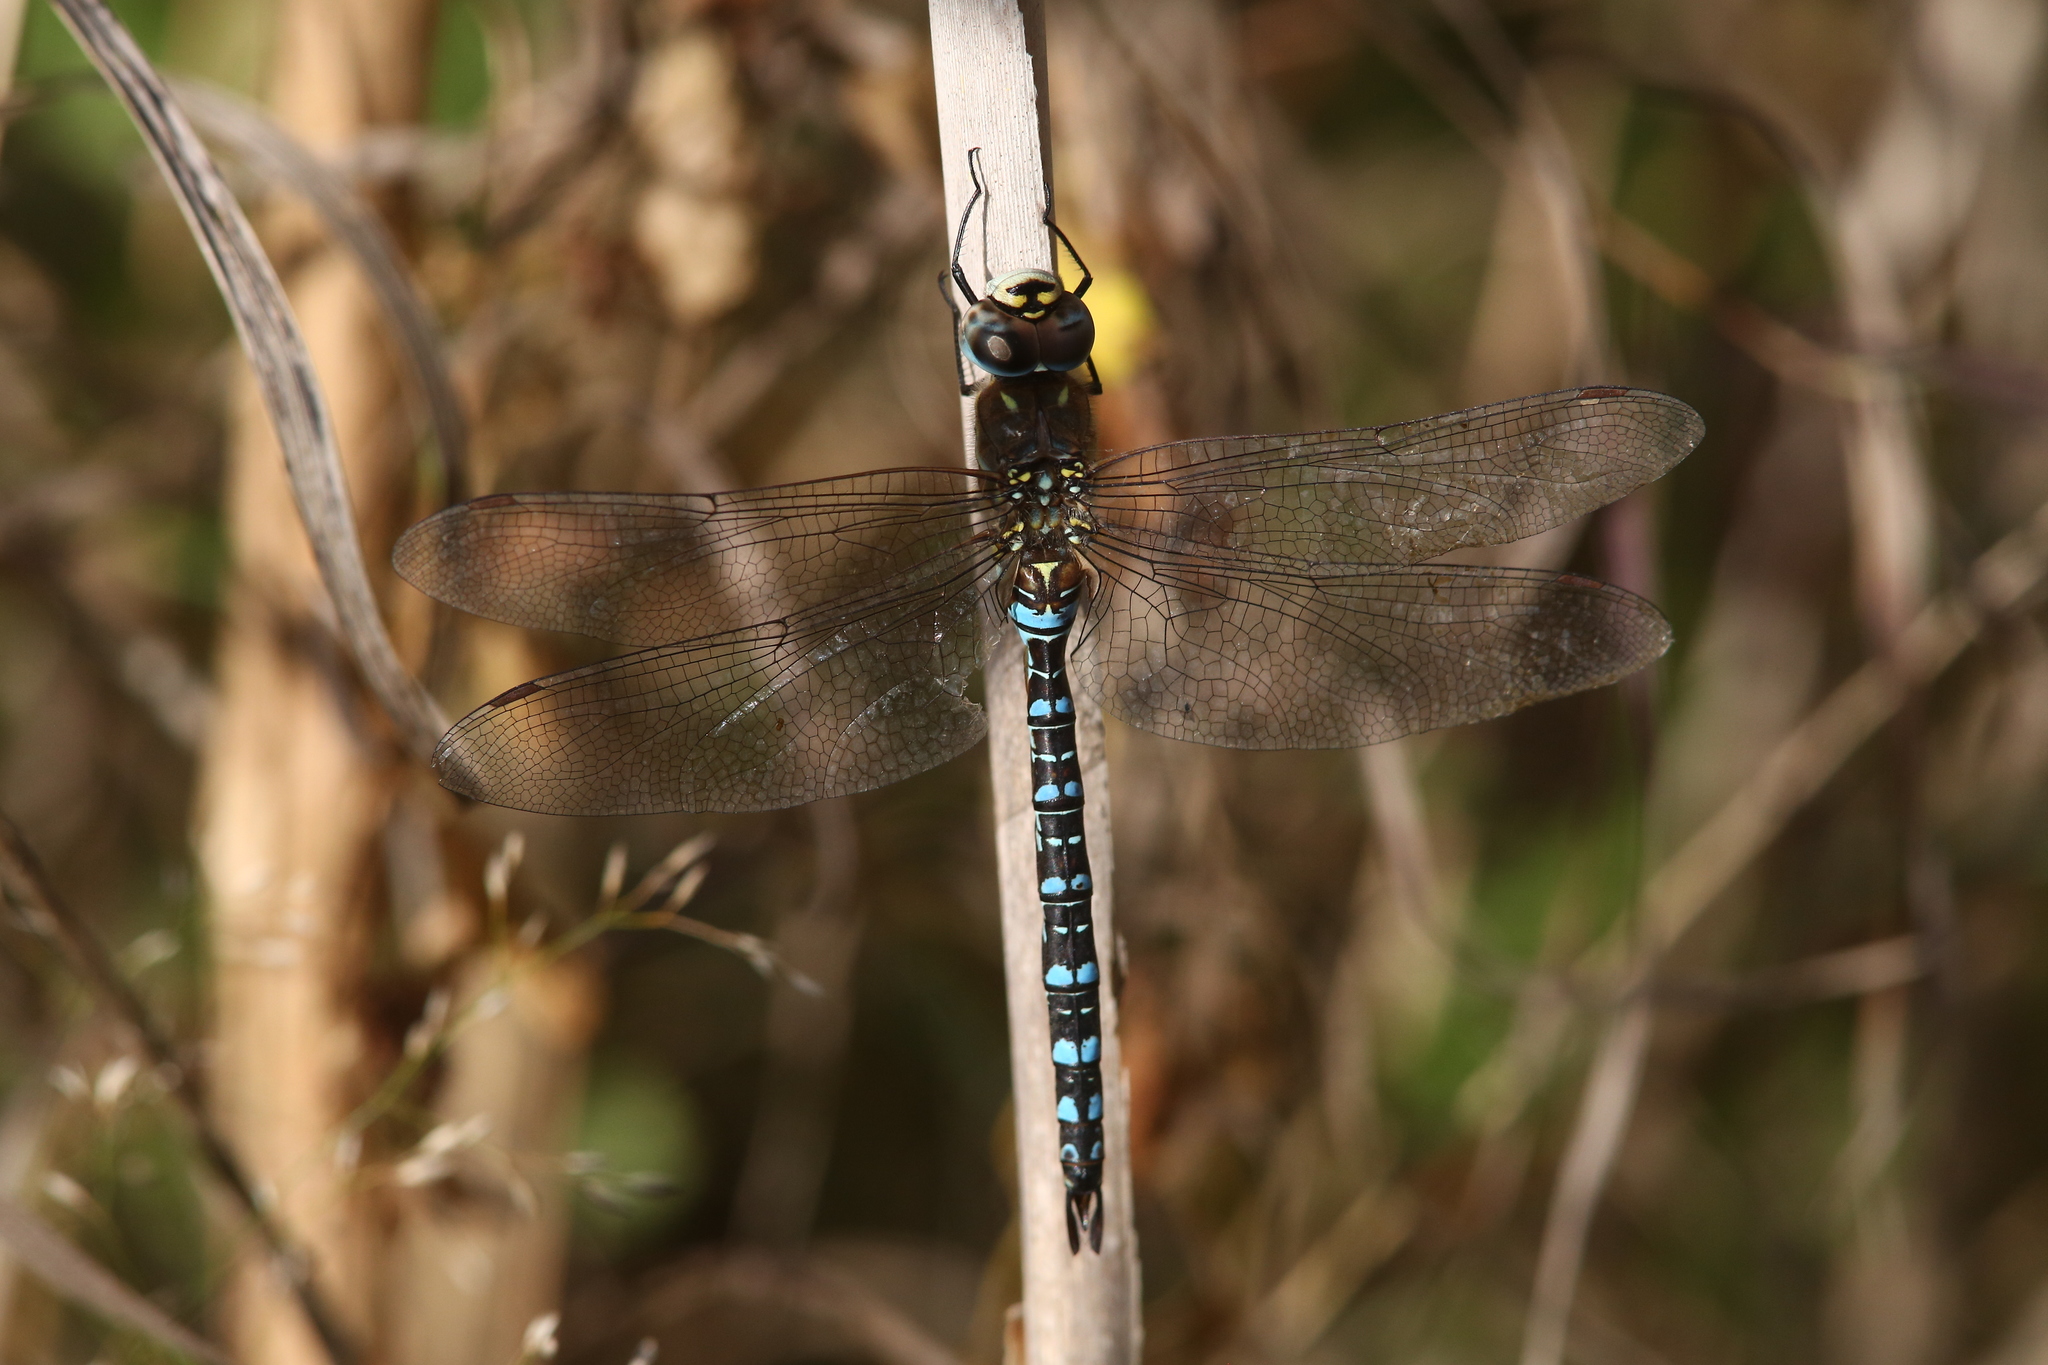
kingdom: Animalia
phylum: Arthropoda
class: Insecta
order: Odonata
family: Aeshnidae
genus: Aeshna
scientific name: Aeshna mixta
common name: Migrant hawker
